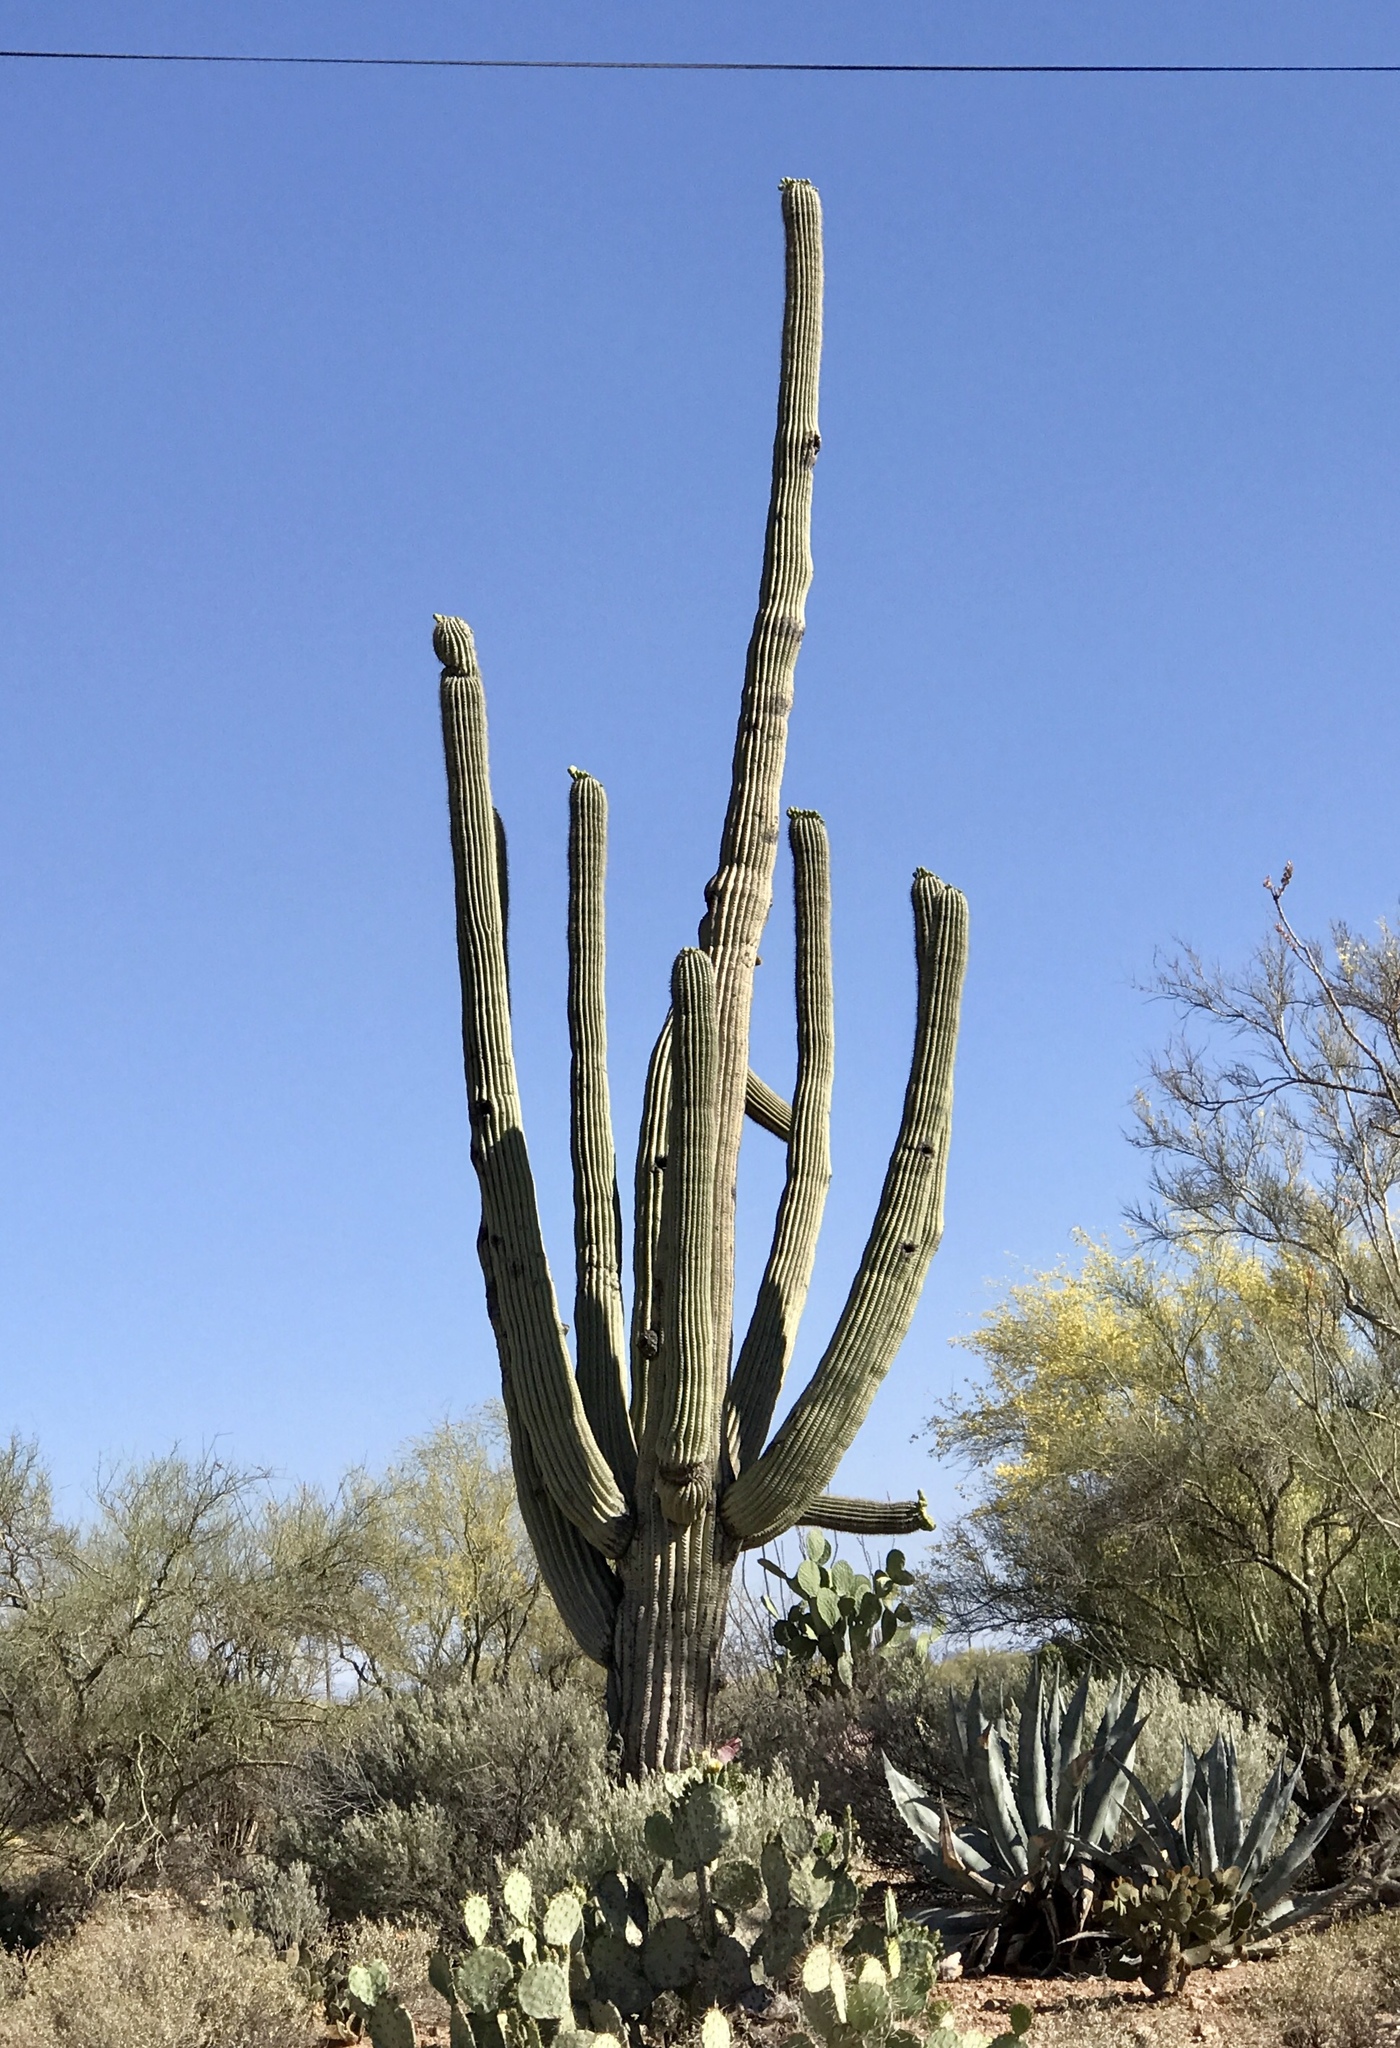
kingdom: Plantae
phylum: Tracheophyta
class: Magnoliopsida
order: Caryophyllales
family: Cactaceae
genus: Carnegiea
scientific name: Carnegiea gigantea
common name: Saguaro
